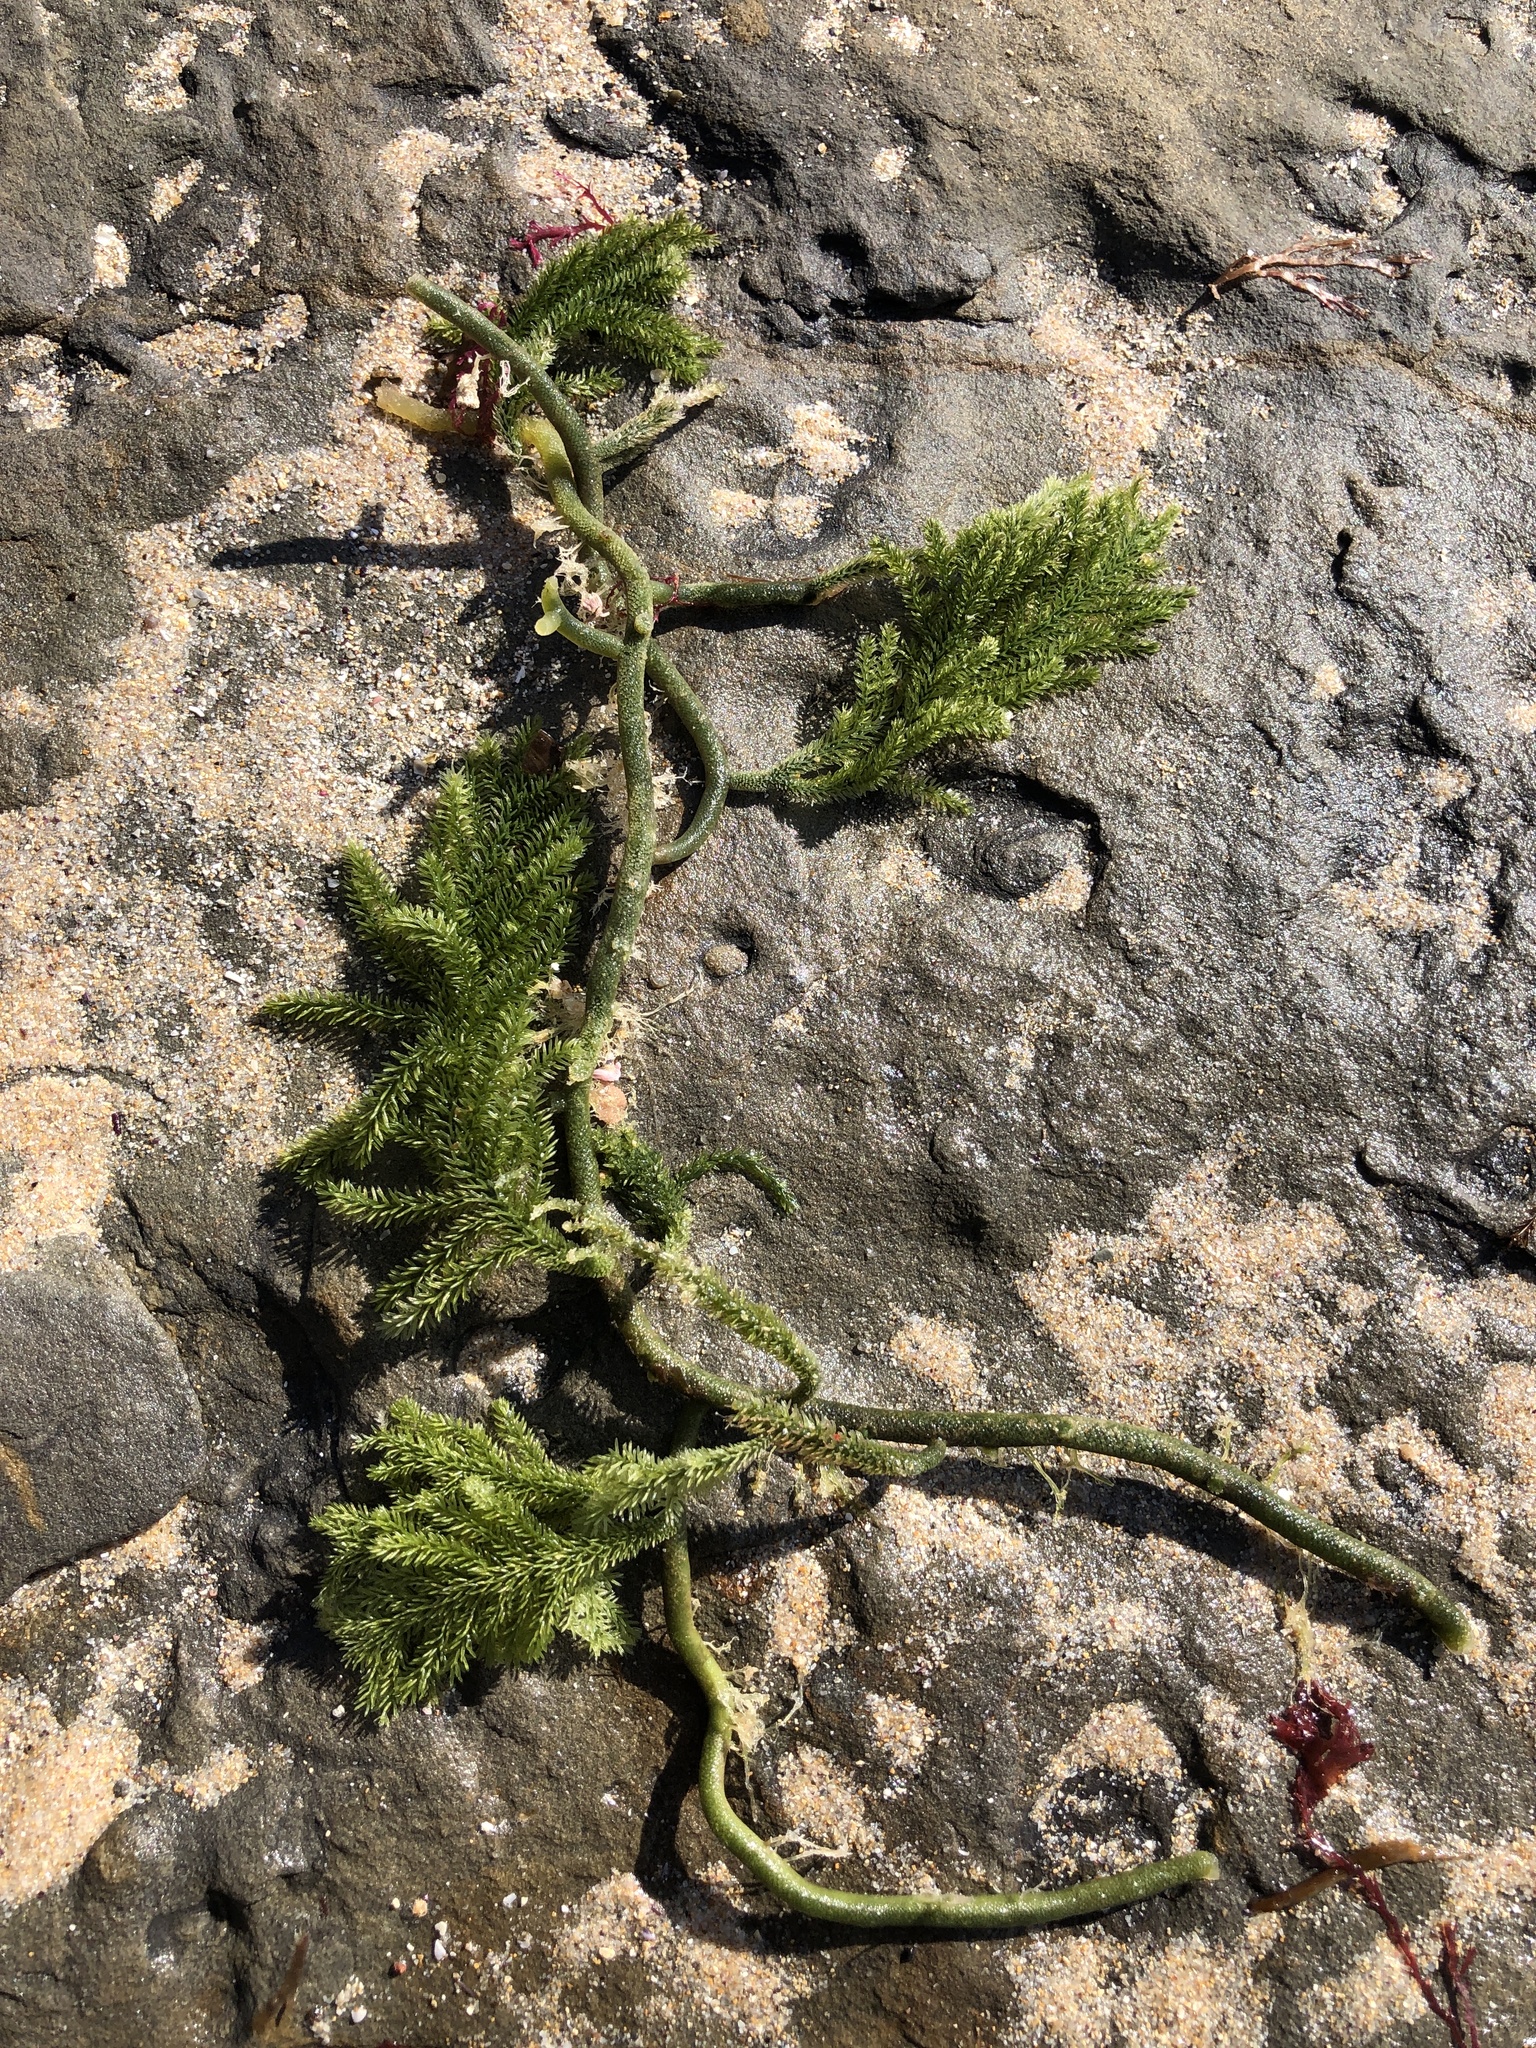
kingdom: Plantae
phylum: Chlorophyta
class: Ulvophyceae
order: Bryopsidales
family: Caulerpaceae
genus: Caulerpa
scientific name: Caulerpa flexilis
